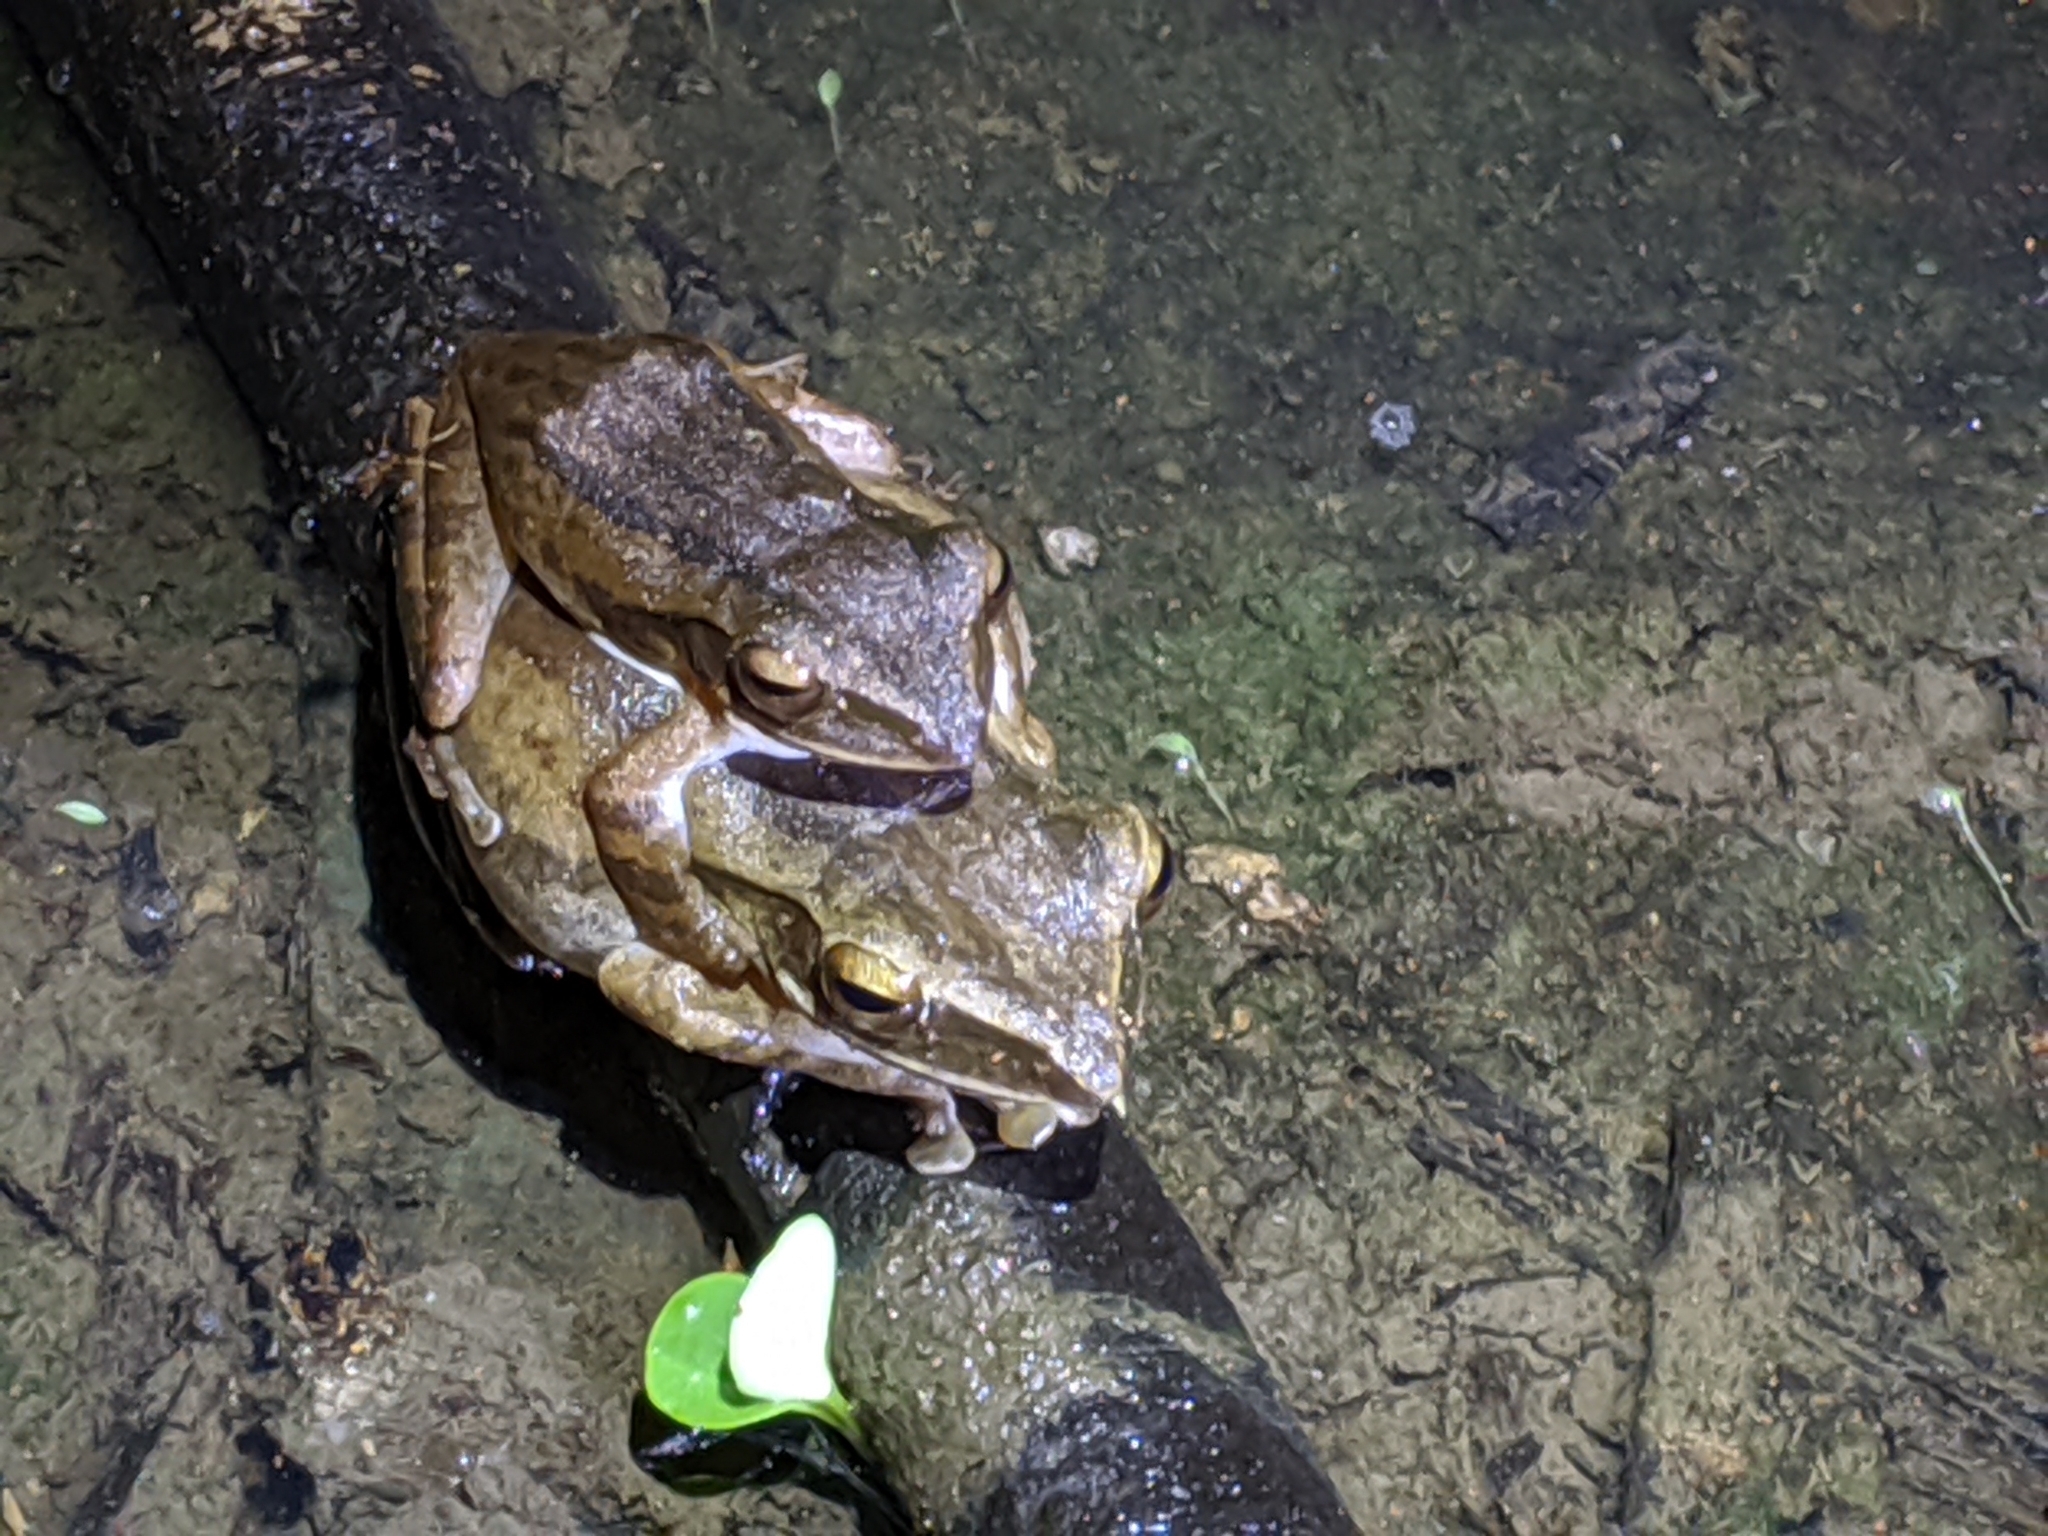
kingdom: Animalia
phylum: Chordata
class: Amphibia
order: Anura
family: Rhacophoridae
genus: Polypedates
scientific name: Polypedates leucomystax
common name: Common tree frog/four-lined tree frog
